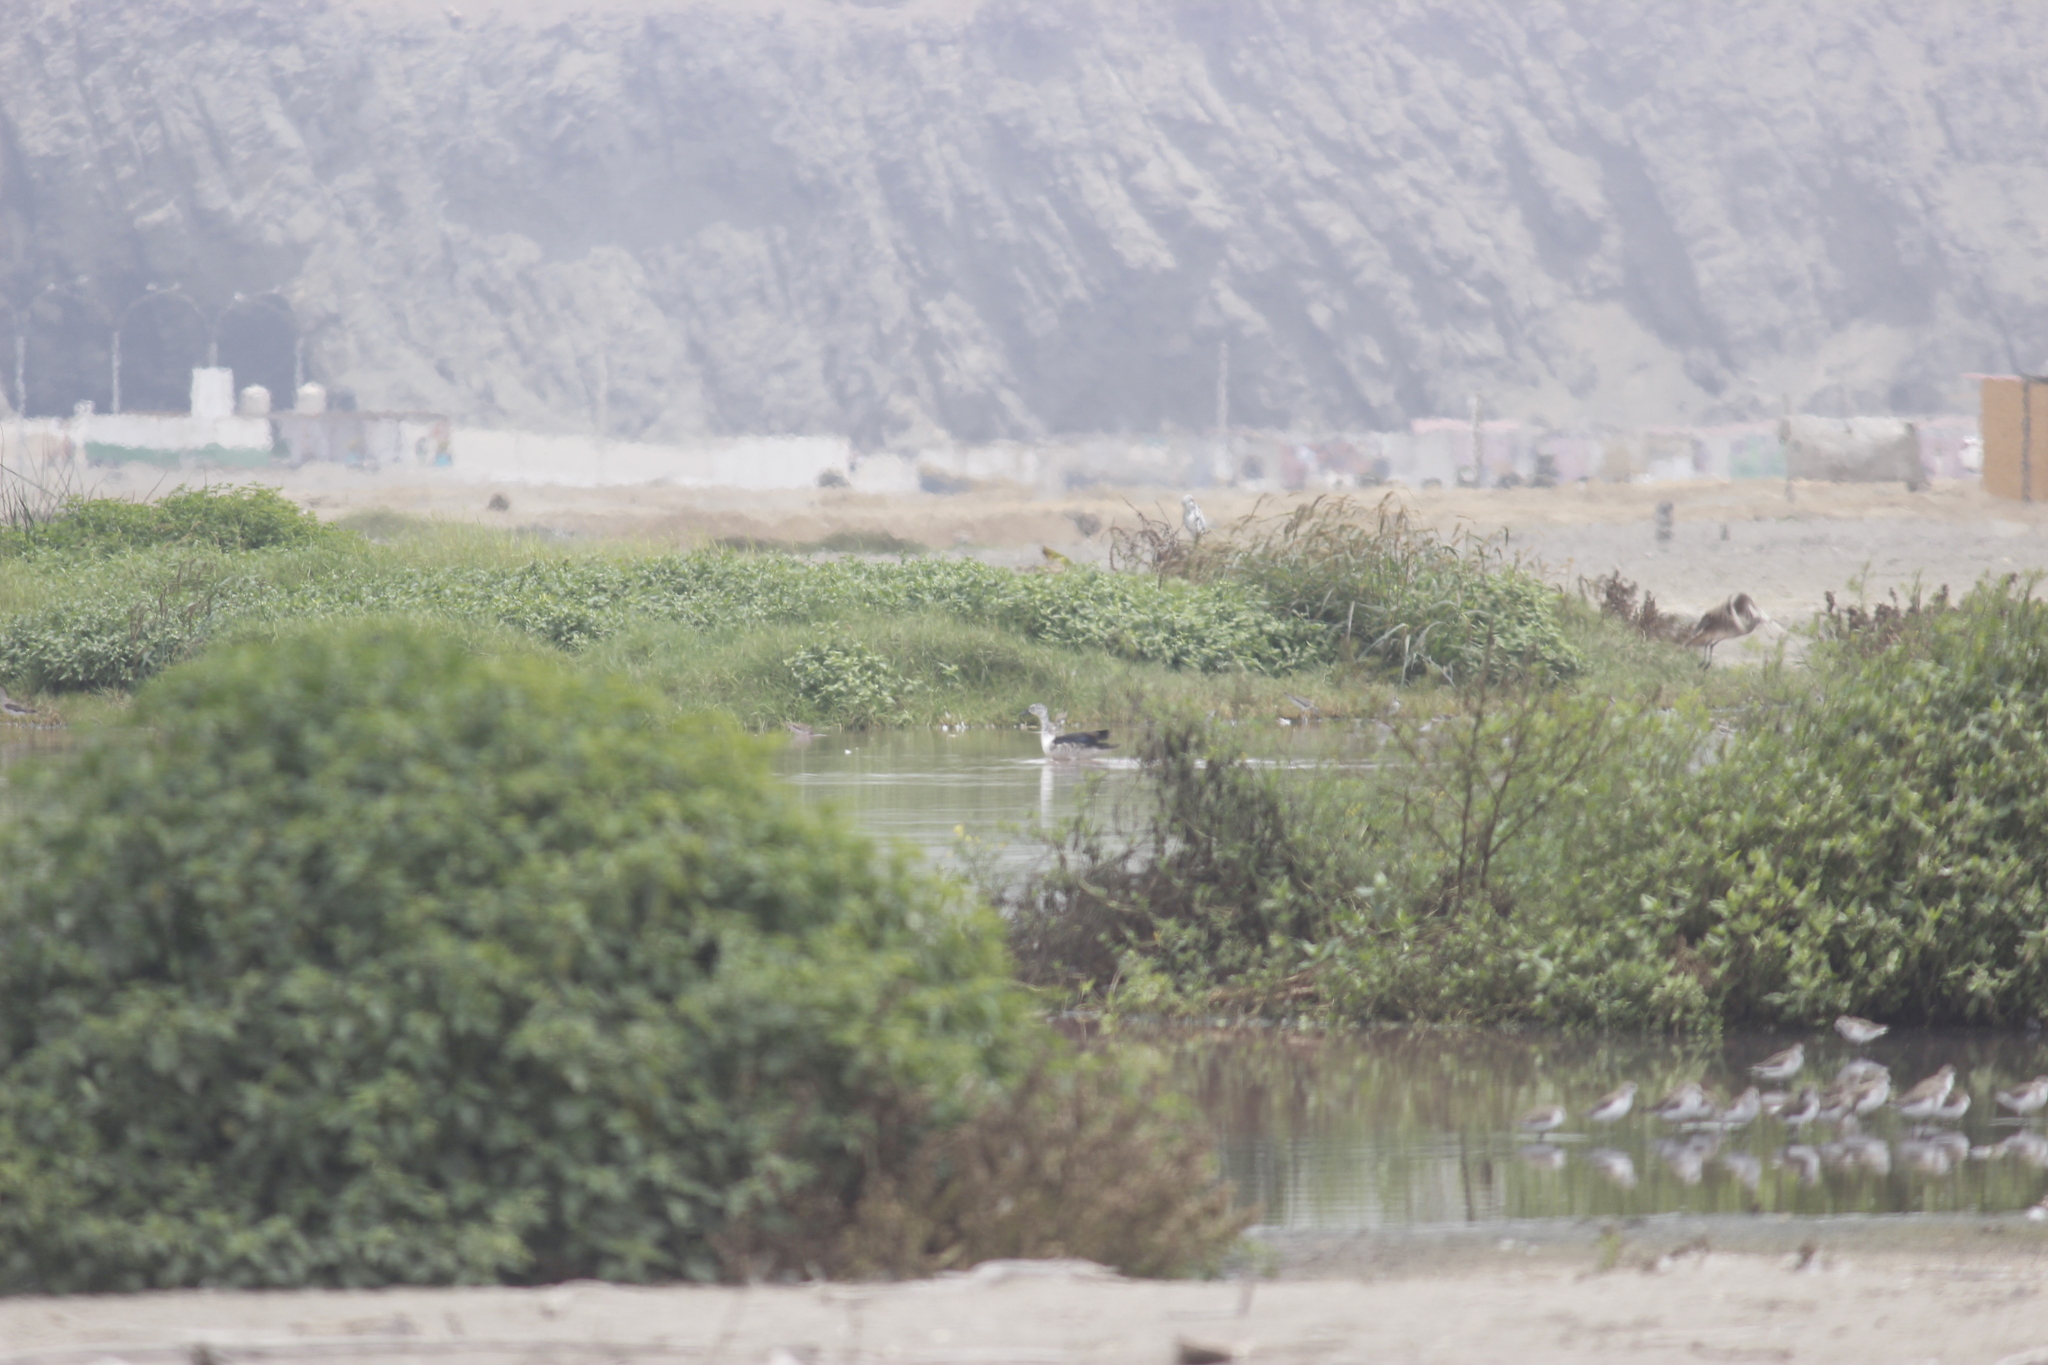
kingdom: Animalia
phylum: Chordata
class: Aves
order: Anseriformes
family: Anatidae
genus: Sarkidiornis
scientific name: Sarkidiornis sylvicola
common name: Comb duck
